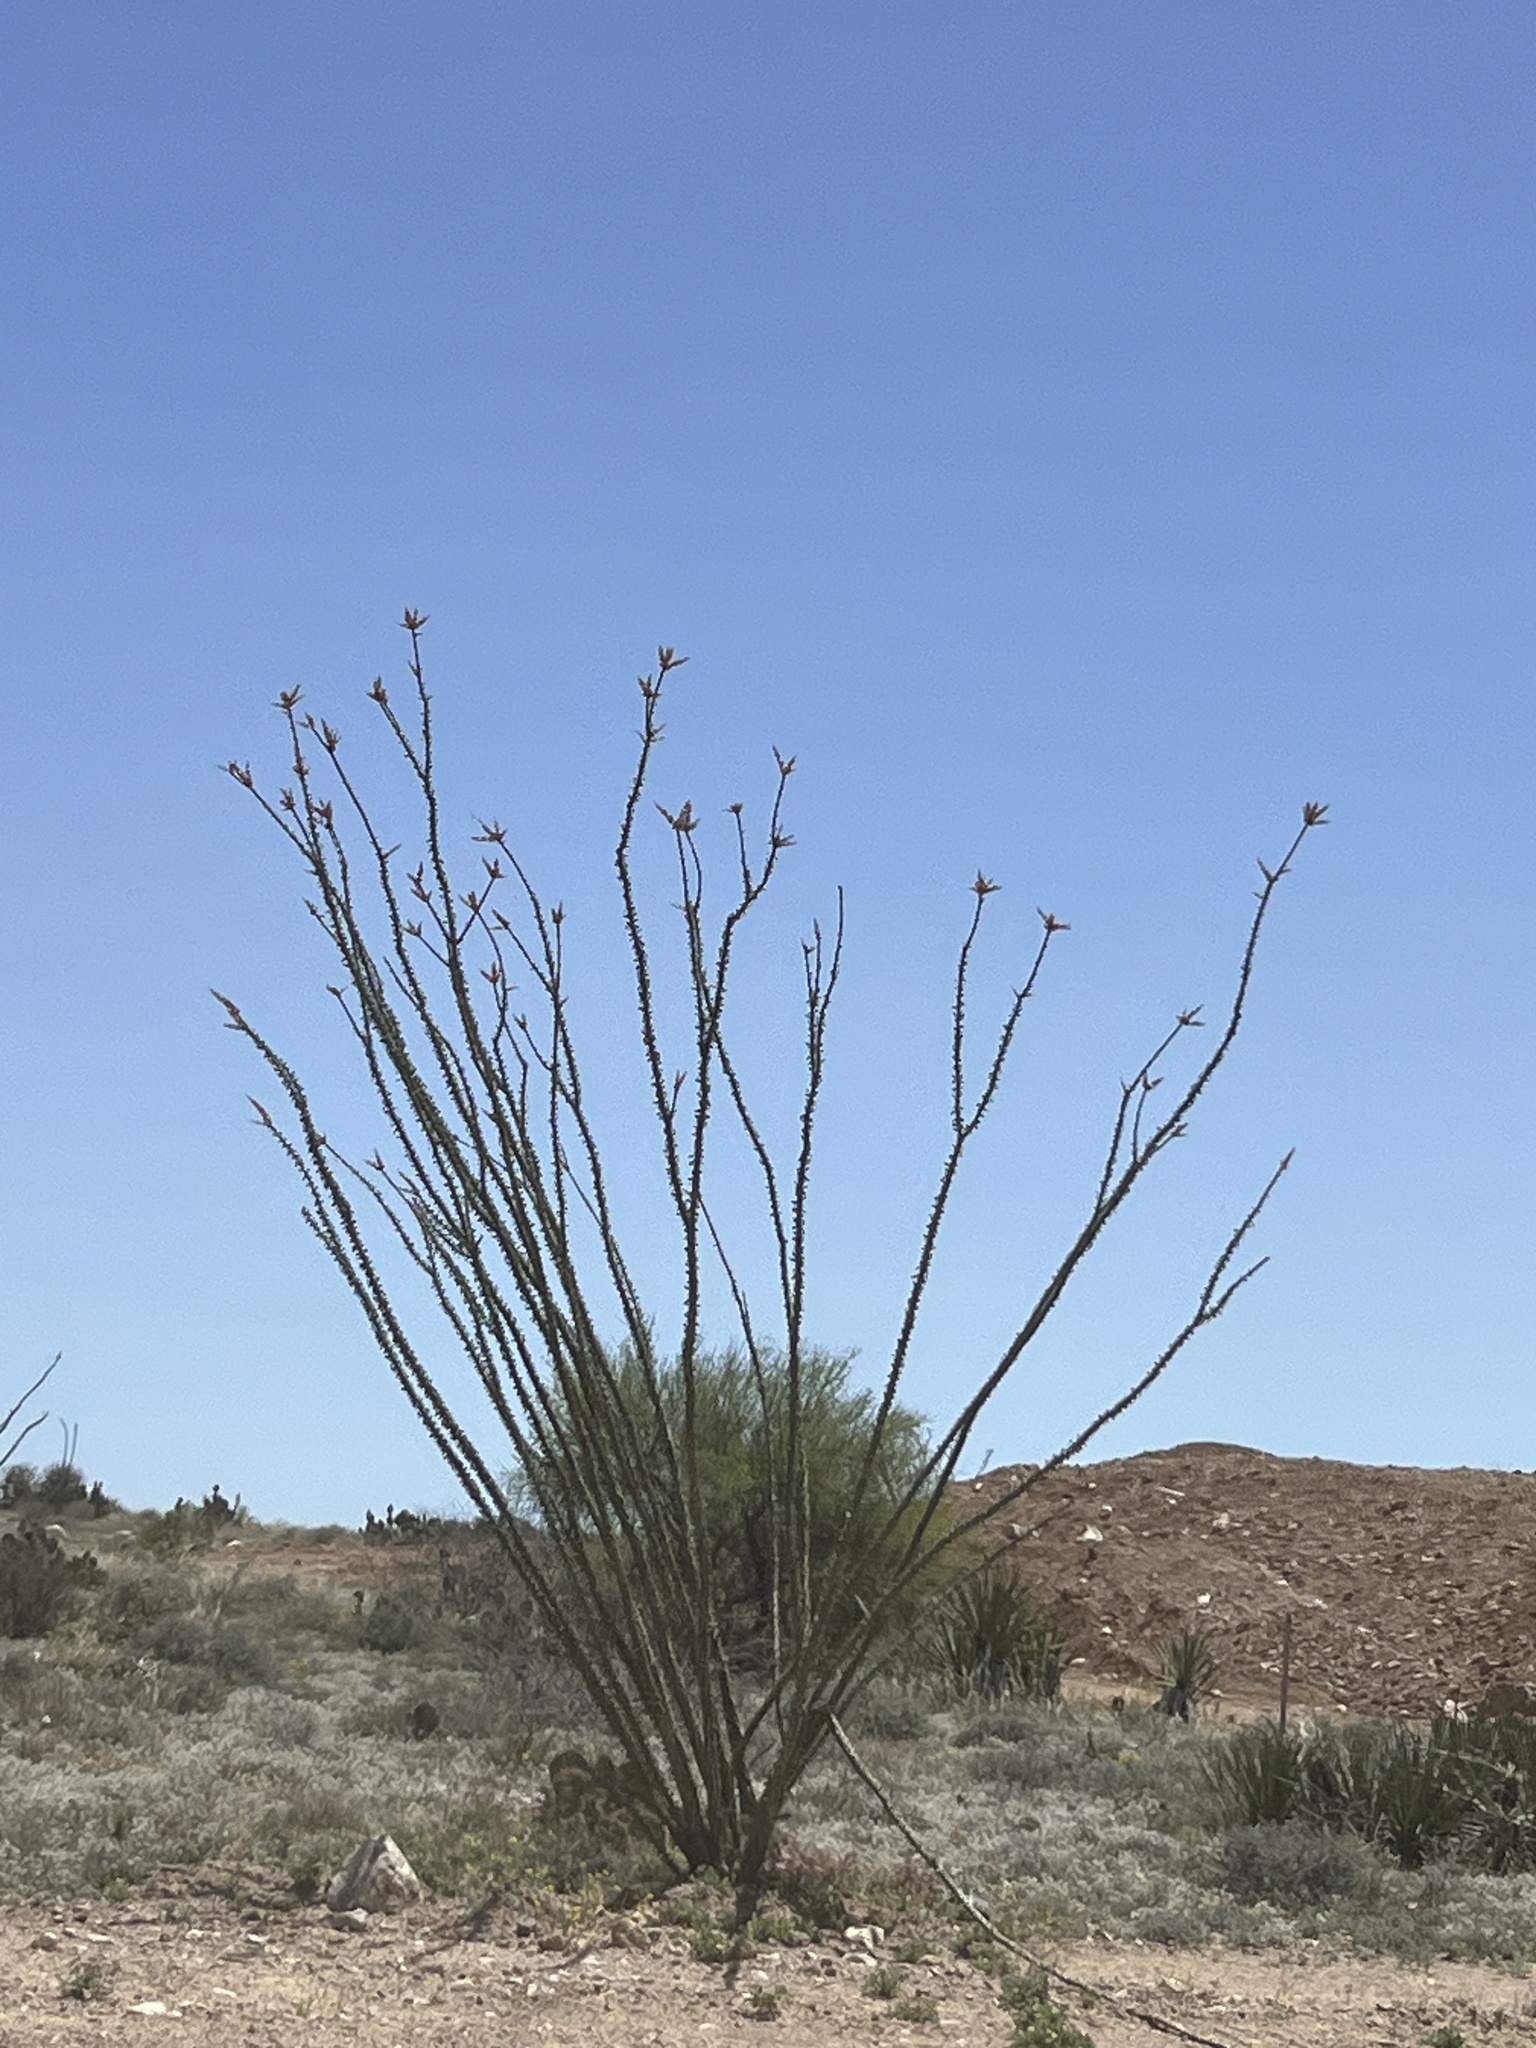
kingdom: Plantae
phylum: Tracheophyta
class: Magnoliopsida
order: Ericales
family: Fouquieriaceae
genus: Fouquieria
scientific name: Fouquieria splendens
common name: Vine-cactus
